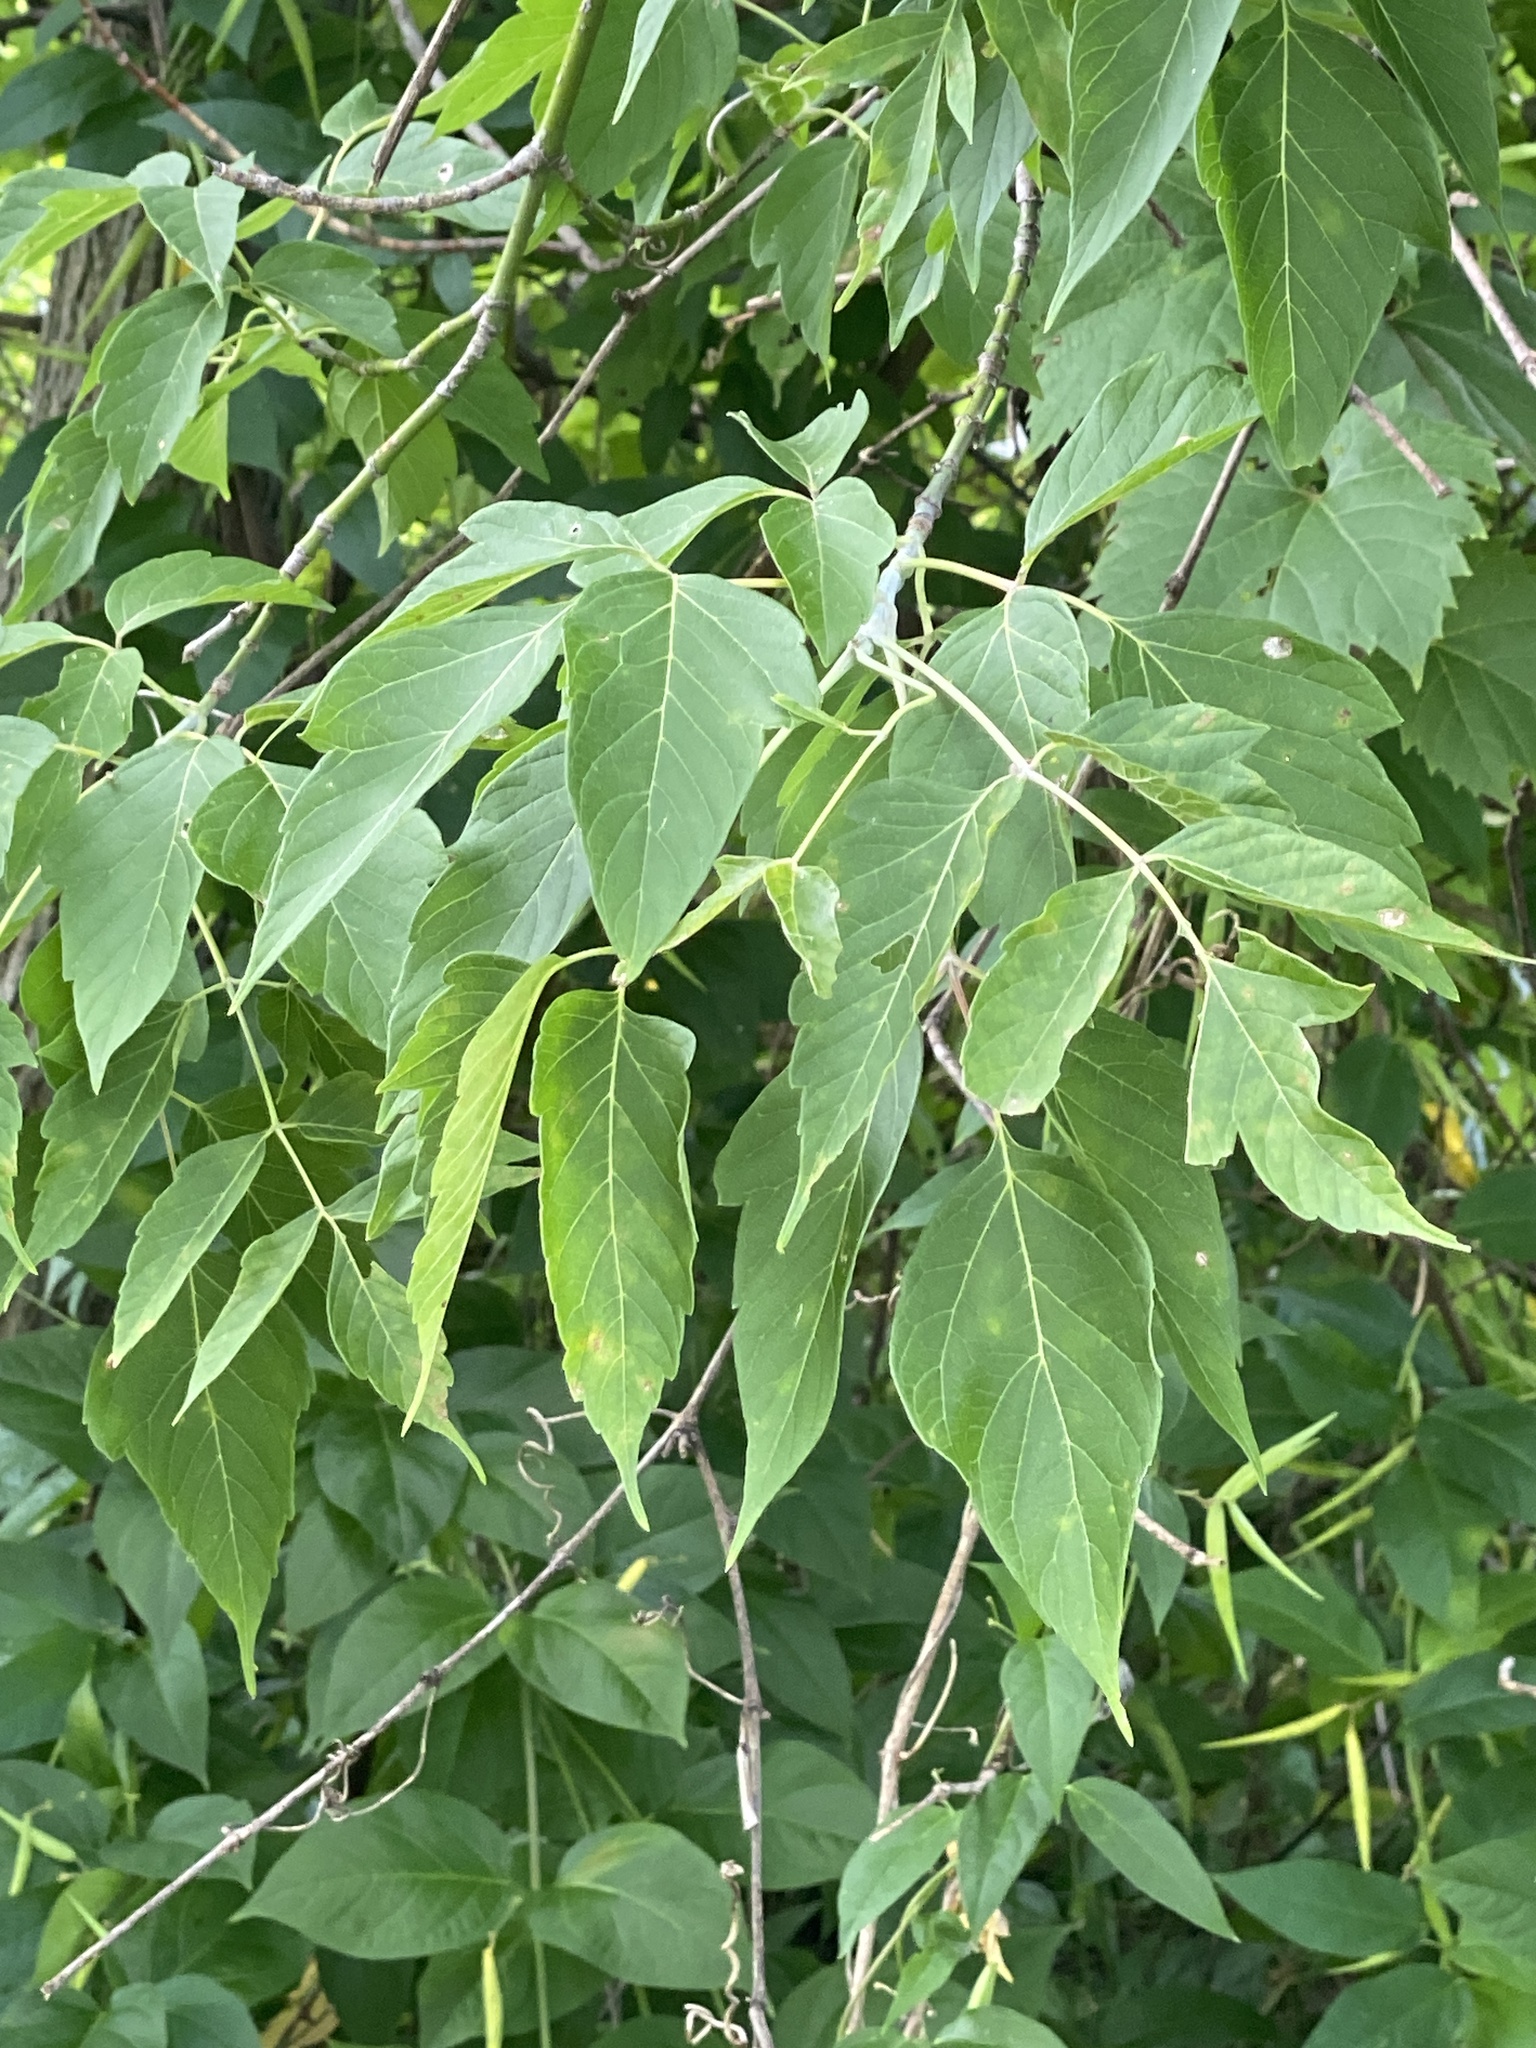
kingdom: Plantae
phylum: Tracheophyta
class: Magnoliopsida
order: Sapindales
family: Sapindaceae
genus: Acer
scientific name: Acer negundo
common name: Ashleaf maple
